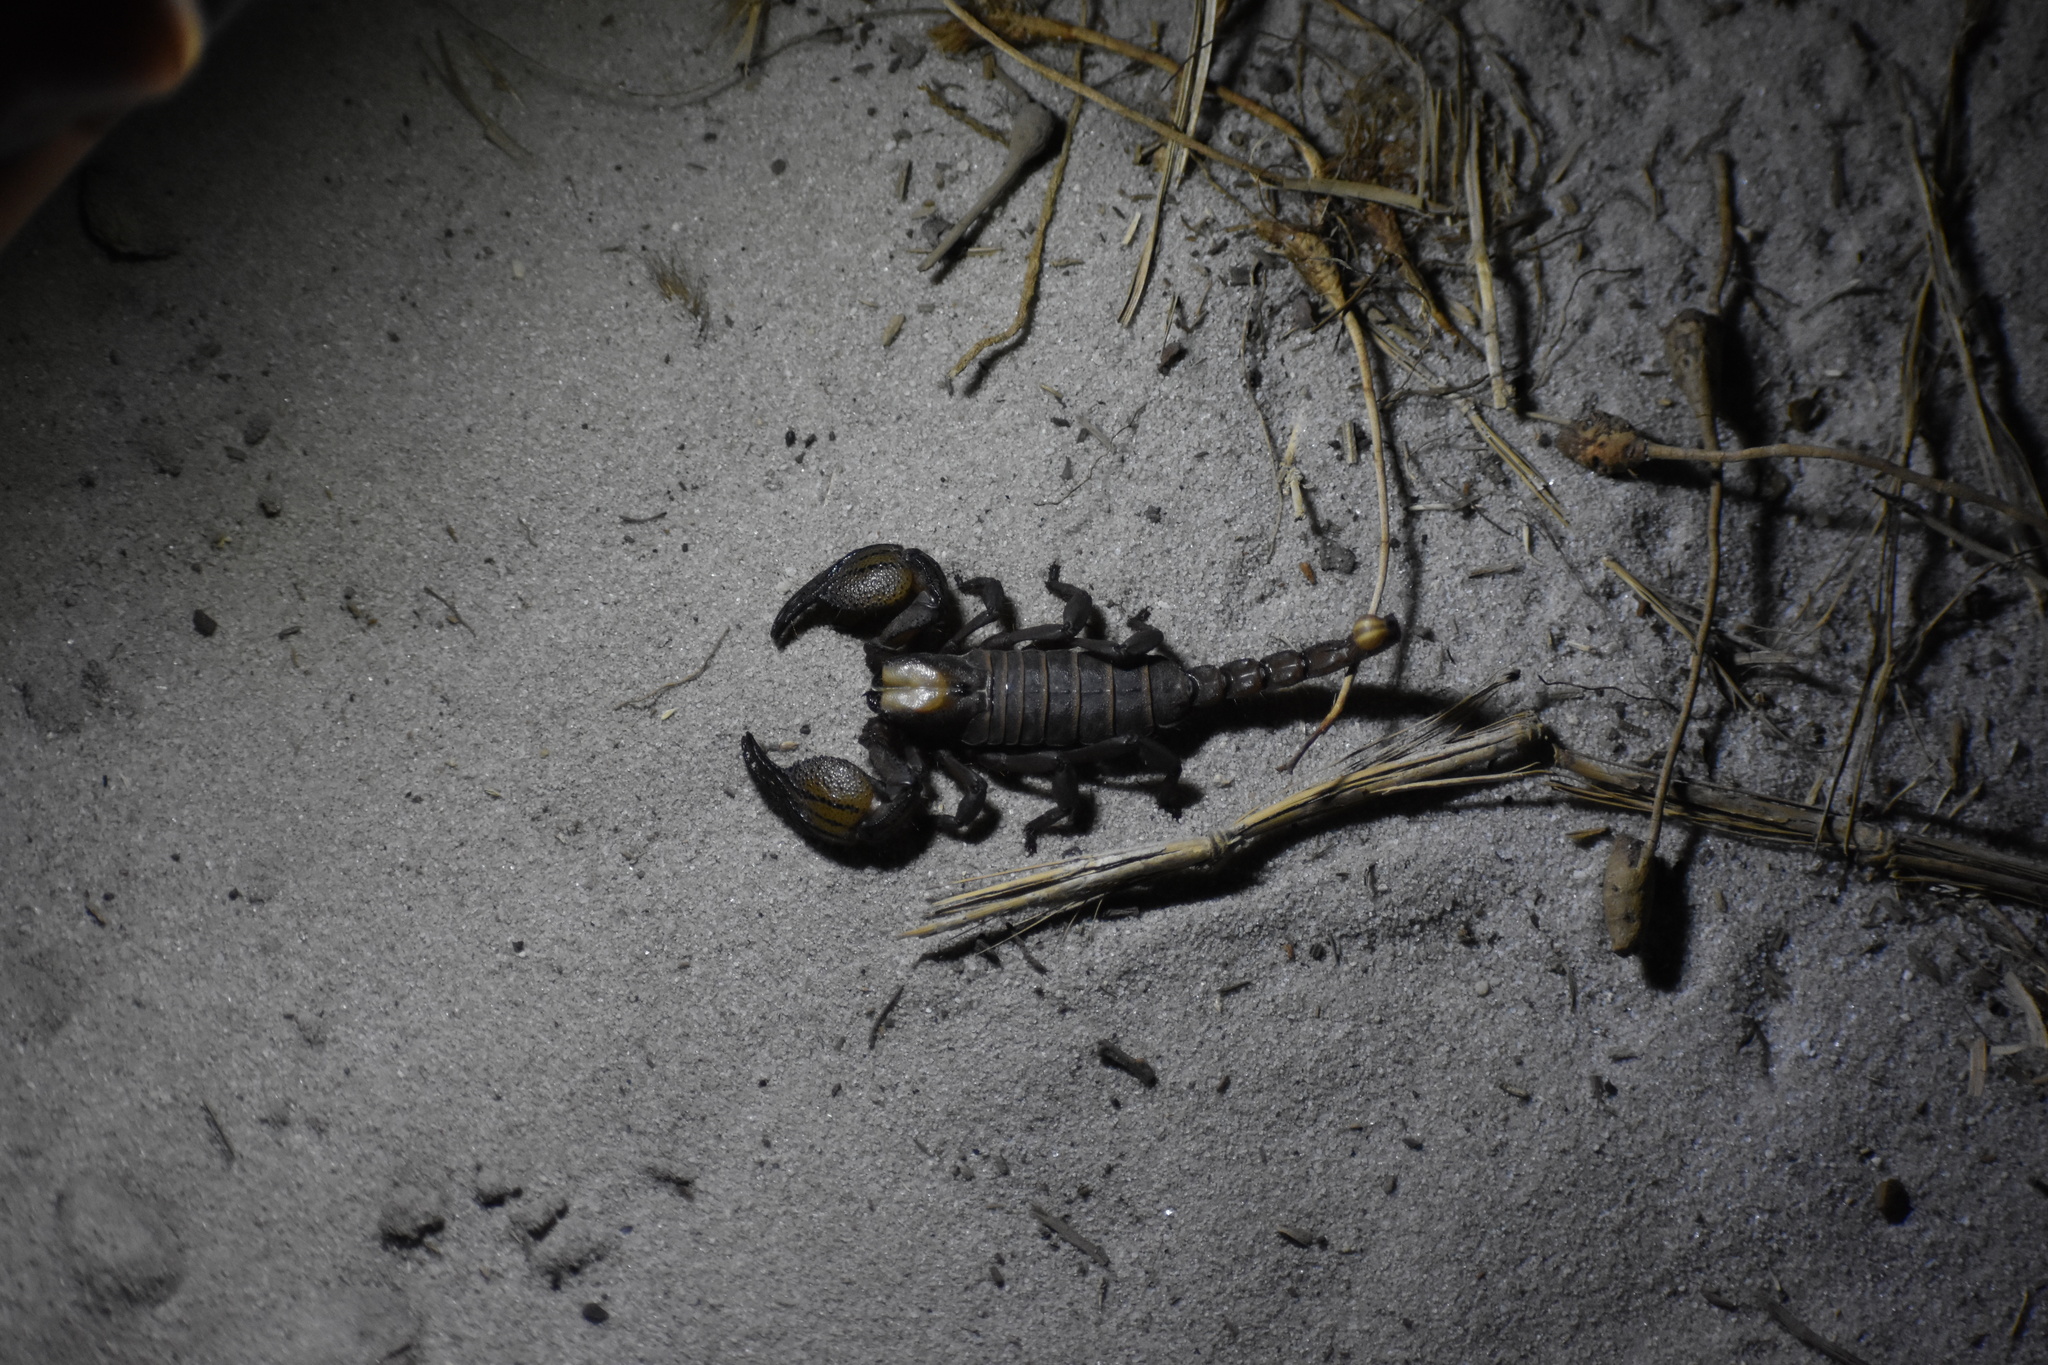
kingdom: Animalia
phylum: Arthropoda
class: Arachnida
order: Scorpiones
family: Scorpionidae
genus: Opistophthalmus
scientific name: Opistophthalmus macer
